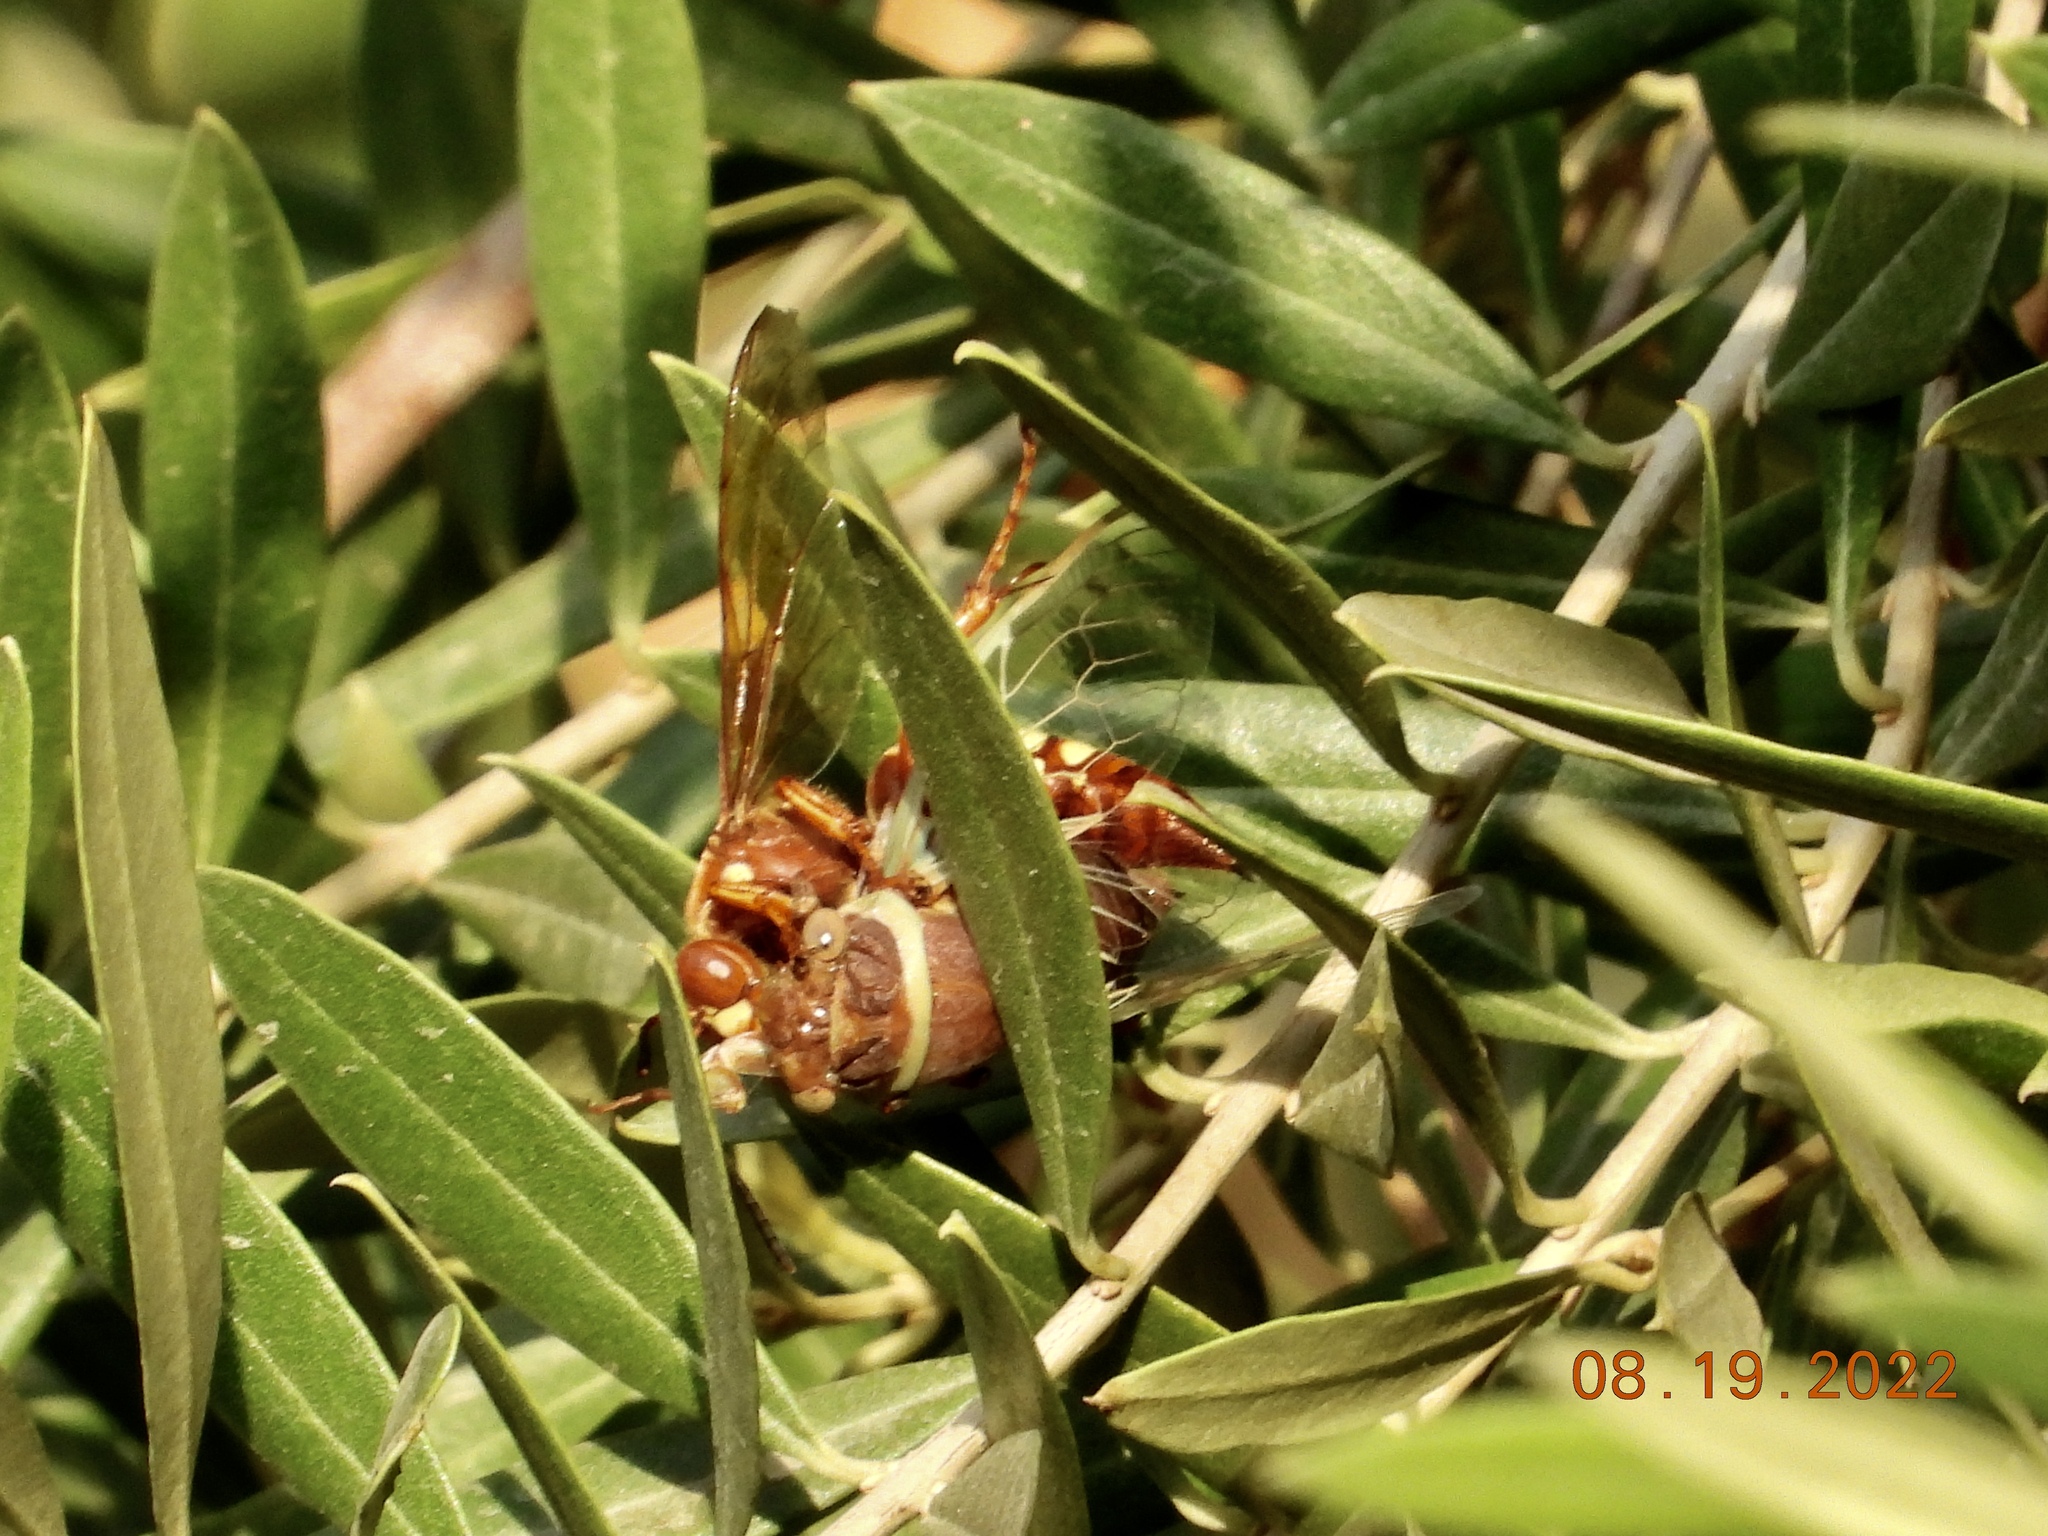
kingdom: Animalia
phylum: Arthropoda
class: Insecta
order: Hymenoptera
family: Crabronidae
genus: Sphecius
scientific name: Sphecius grandis
